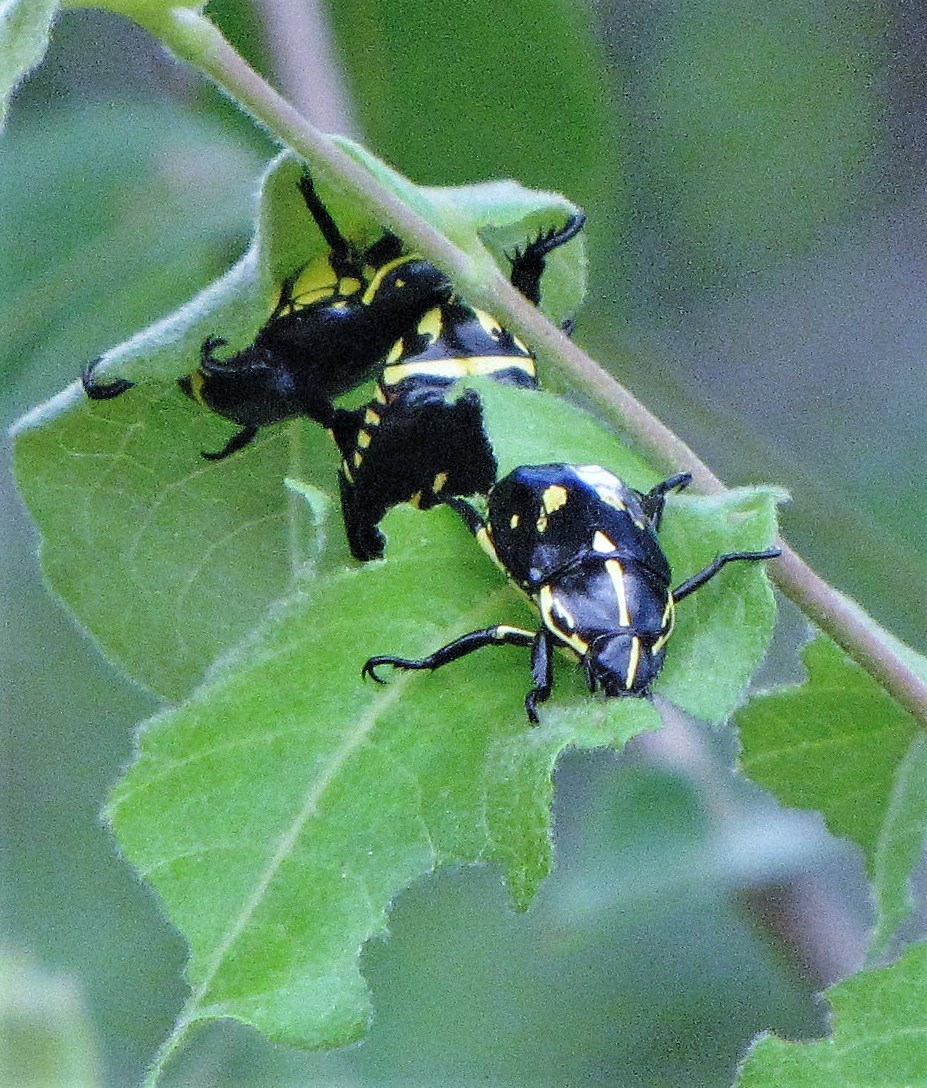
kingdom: Animalia
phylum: Arthropoda
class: Insecta
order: Coleoptera
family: Scarabaeidae
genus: Rutela
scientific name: Rutela lineola
